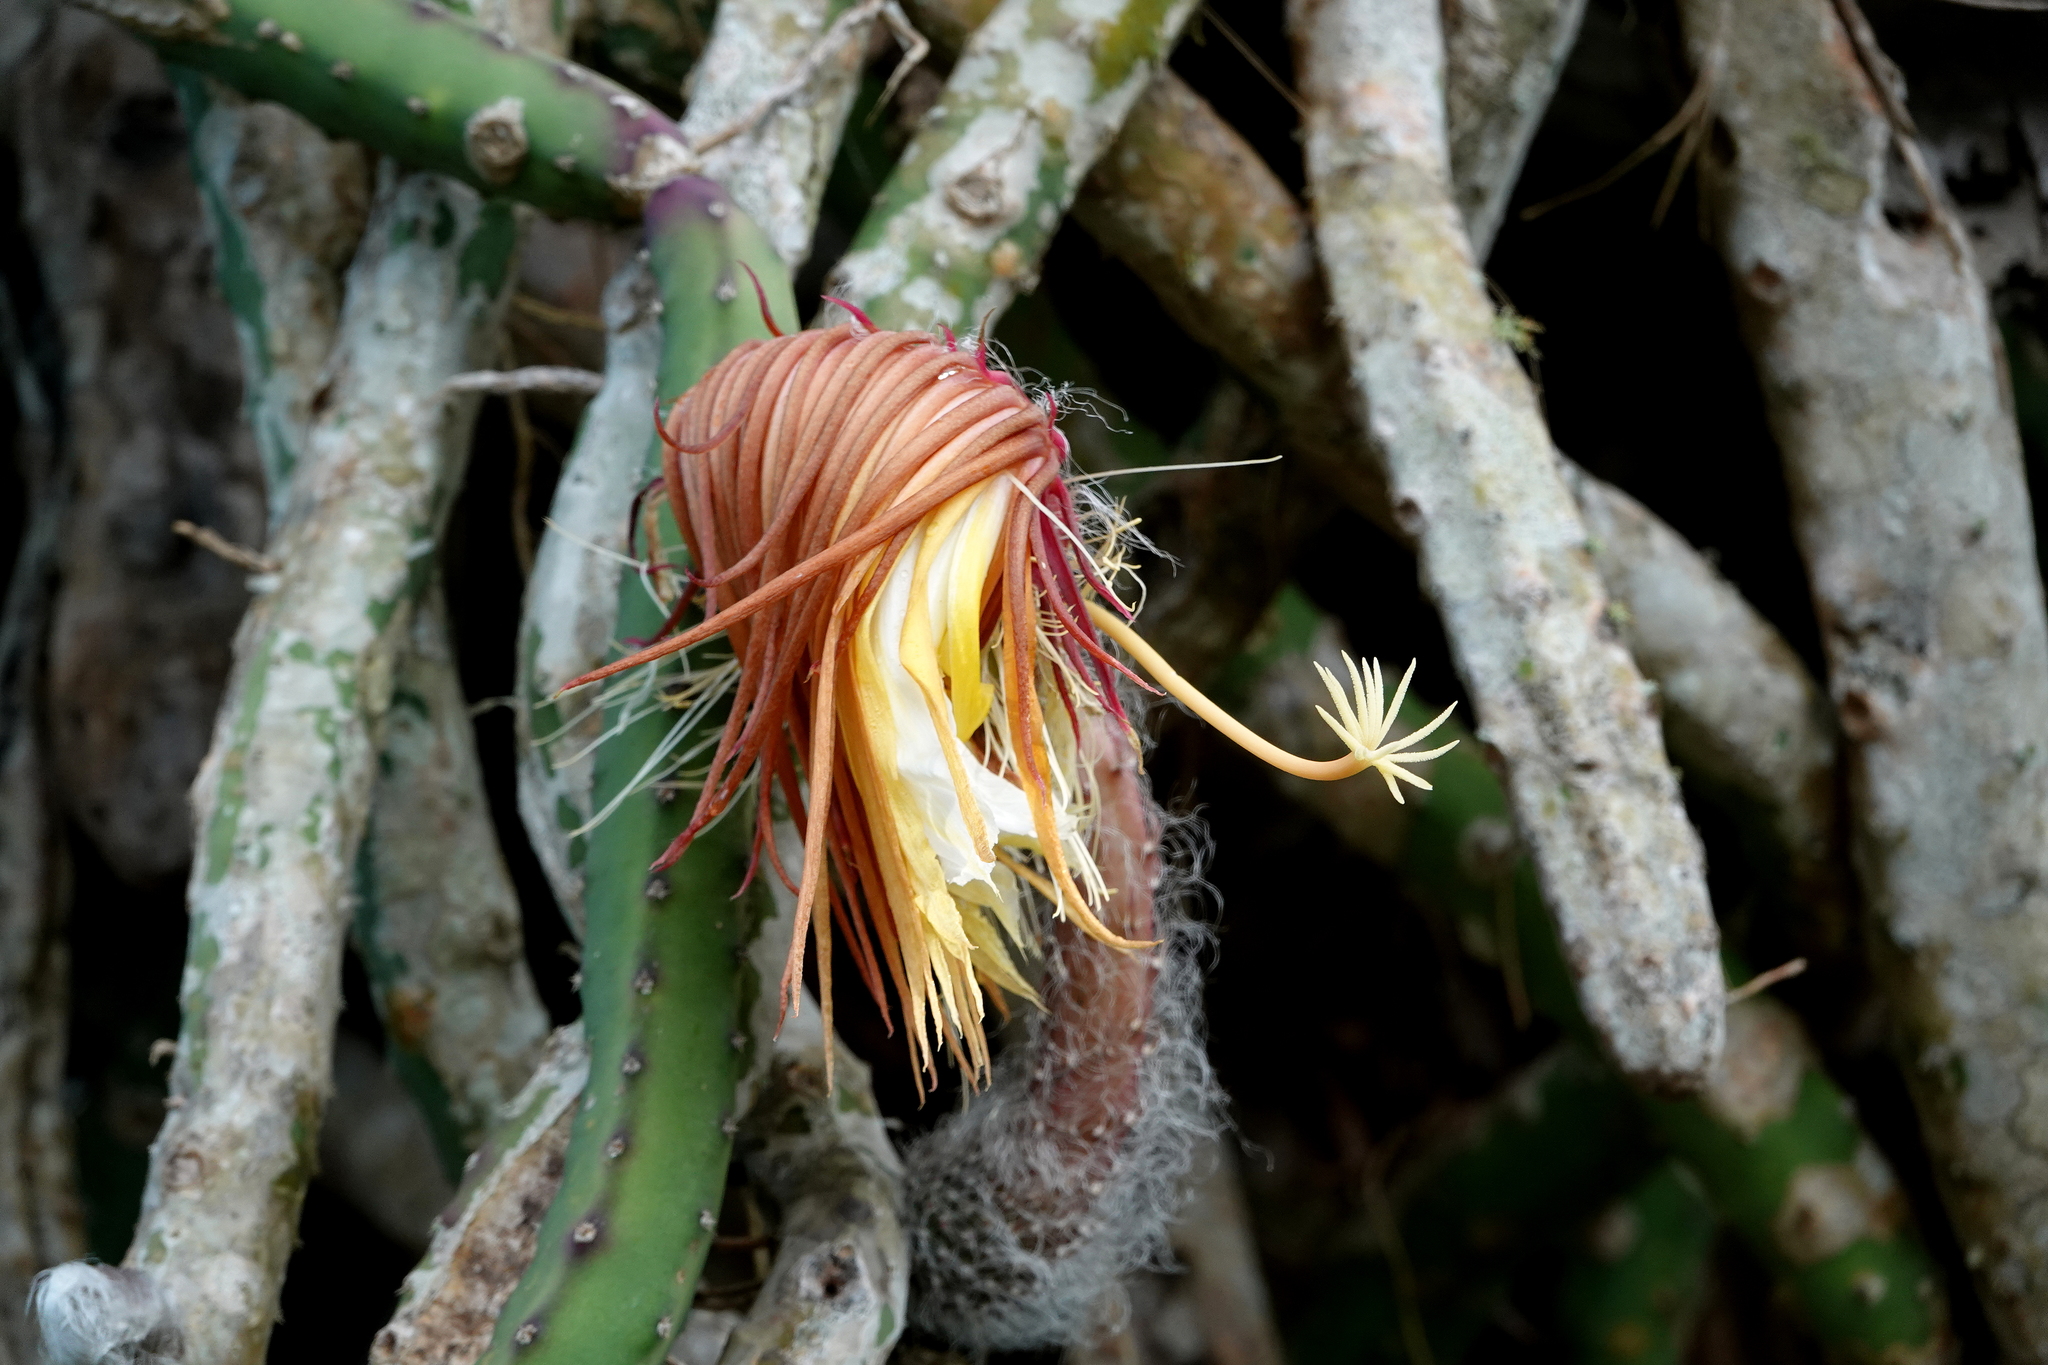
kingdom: Plantae
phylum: Tracheophyta
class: Magnoliopsida
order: Caryophyllales
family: Cactaceae
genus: Selenicereus
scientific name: Selenicereus grandiflorus
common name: Queen of the night
